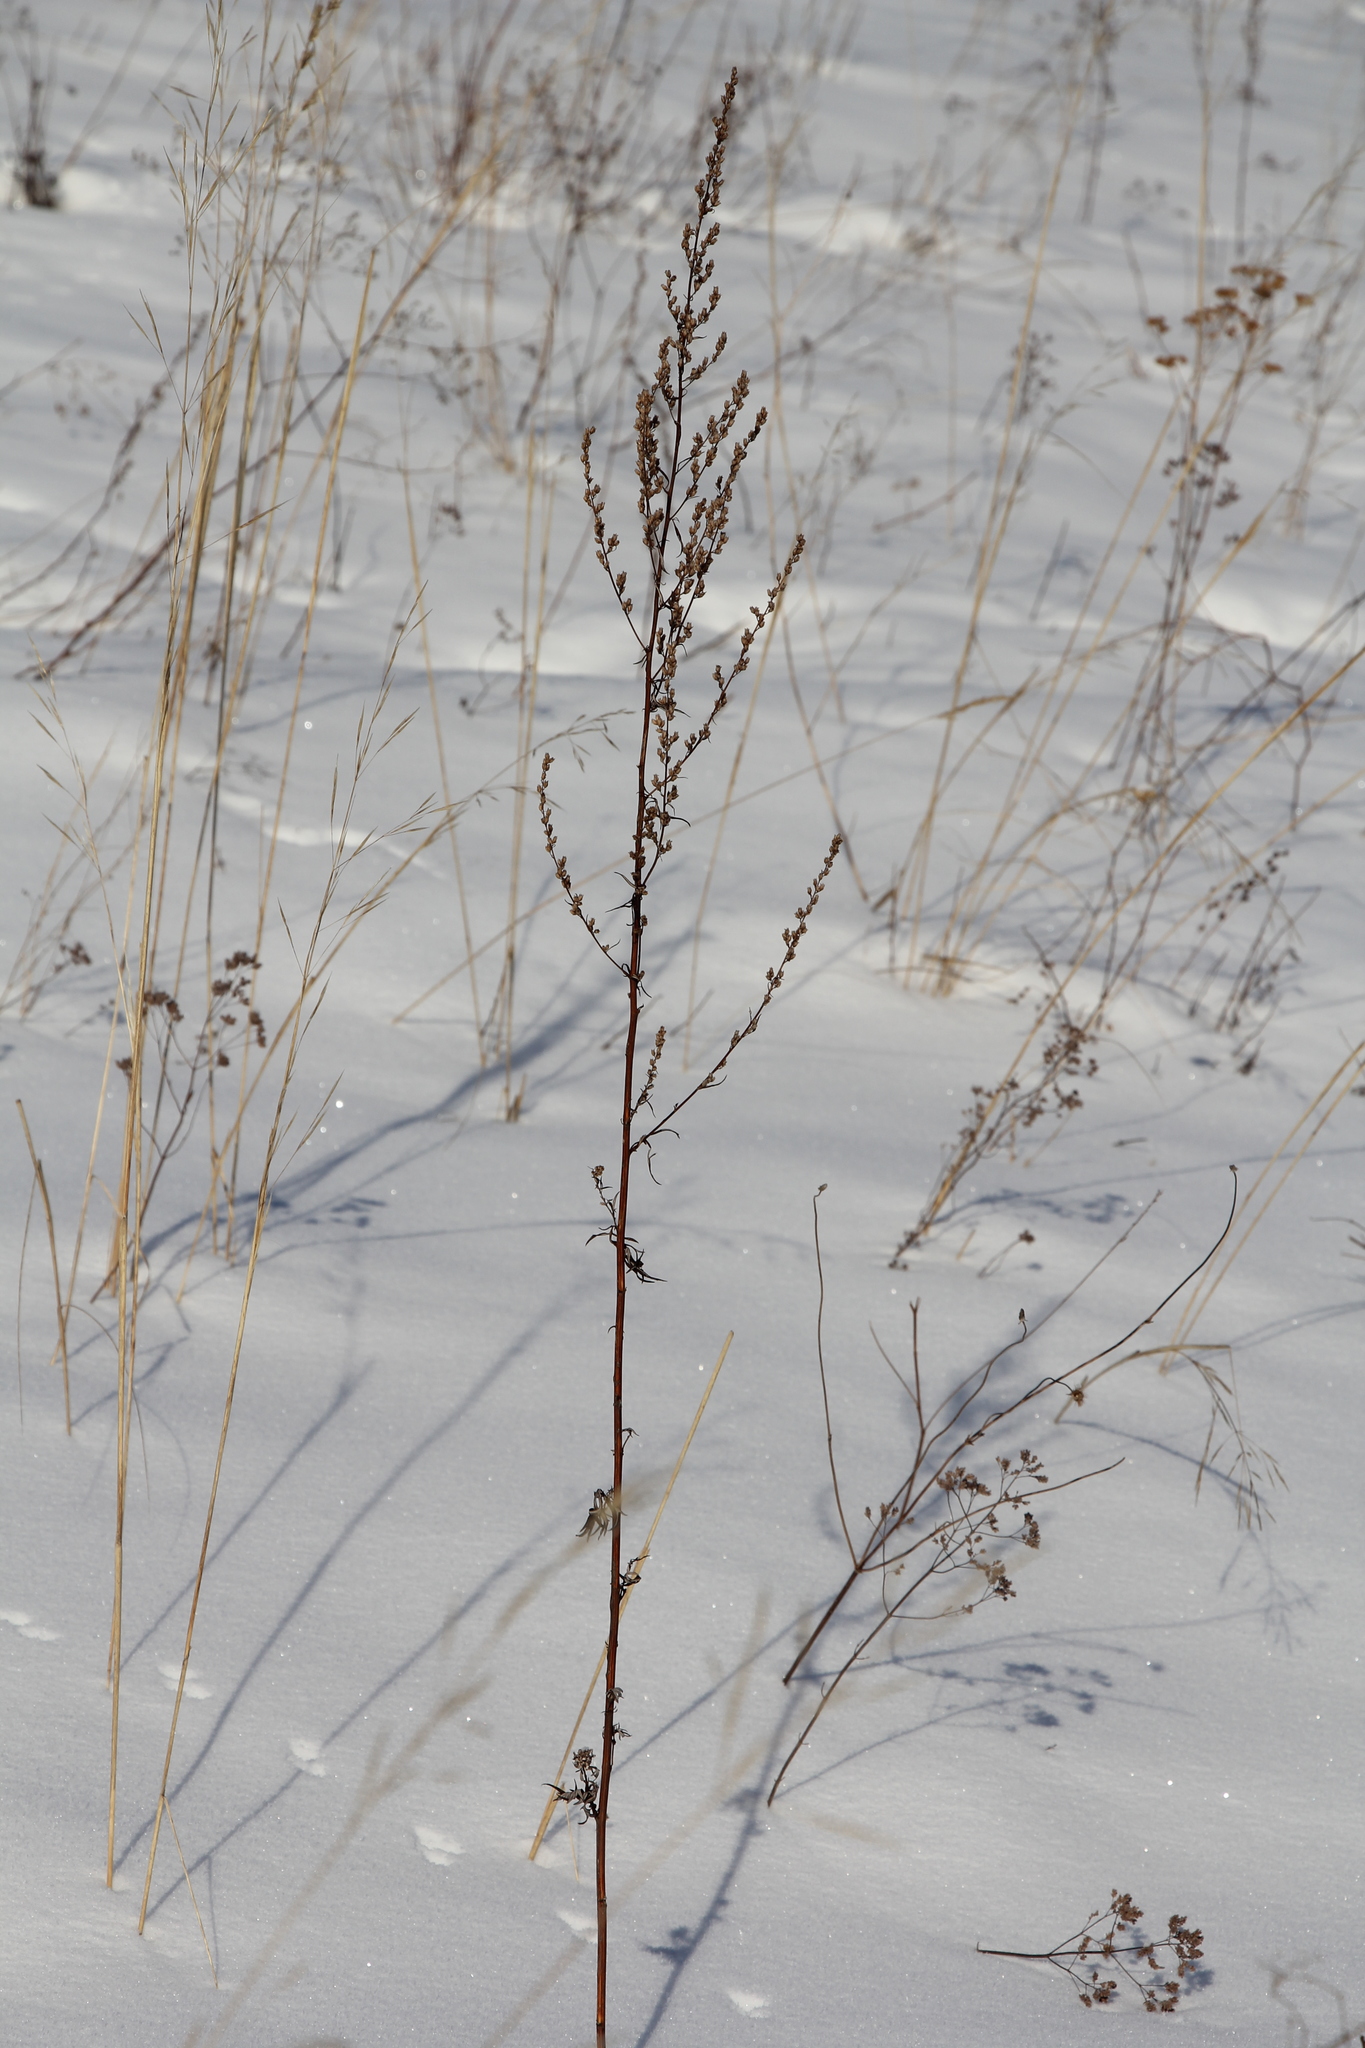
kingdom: Plantae
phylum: Tracheophyta
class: Magnoliopsida
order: Asterales
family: Asteraceae
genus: Artemisia
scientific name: Artemisia vulgaris
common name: Mugwort
